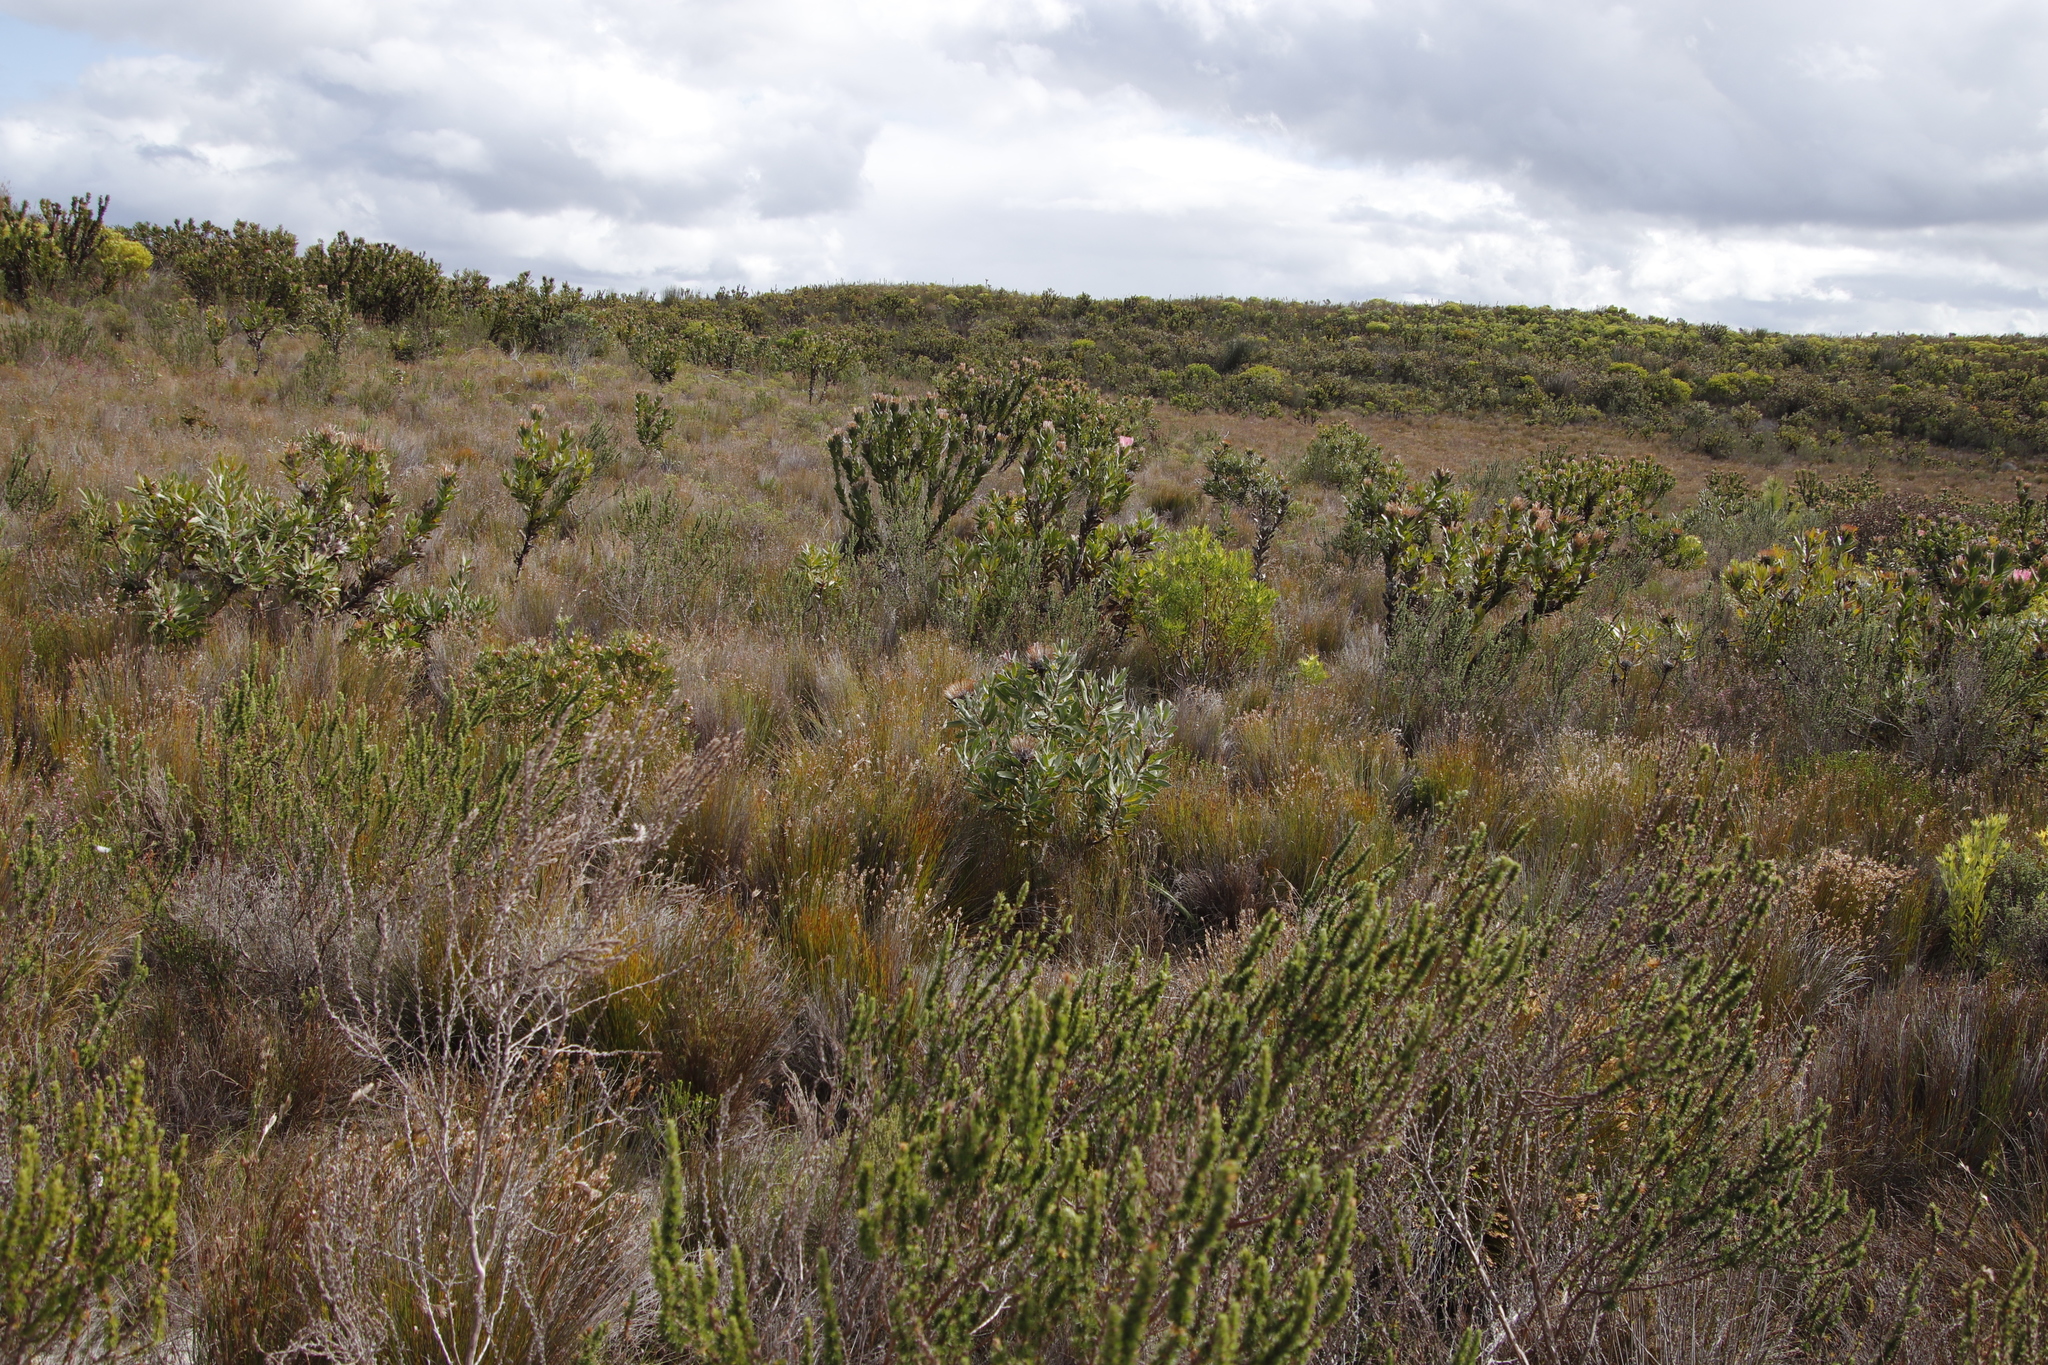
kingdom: Plantae
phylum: Tracheophyta
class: Magnoliopsida
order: Proteales
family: Proteaceae
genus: Protea
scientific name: Protea susannae
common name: Foetid-leaf sugarbush
